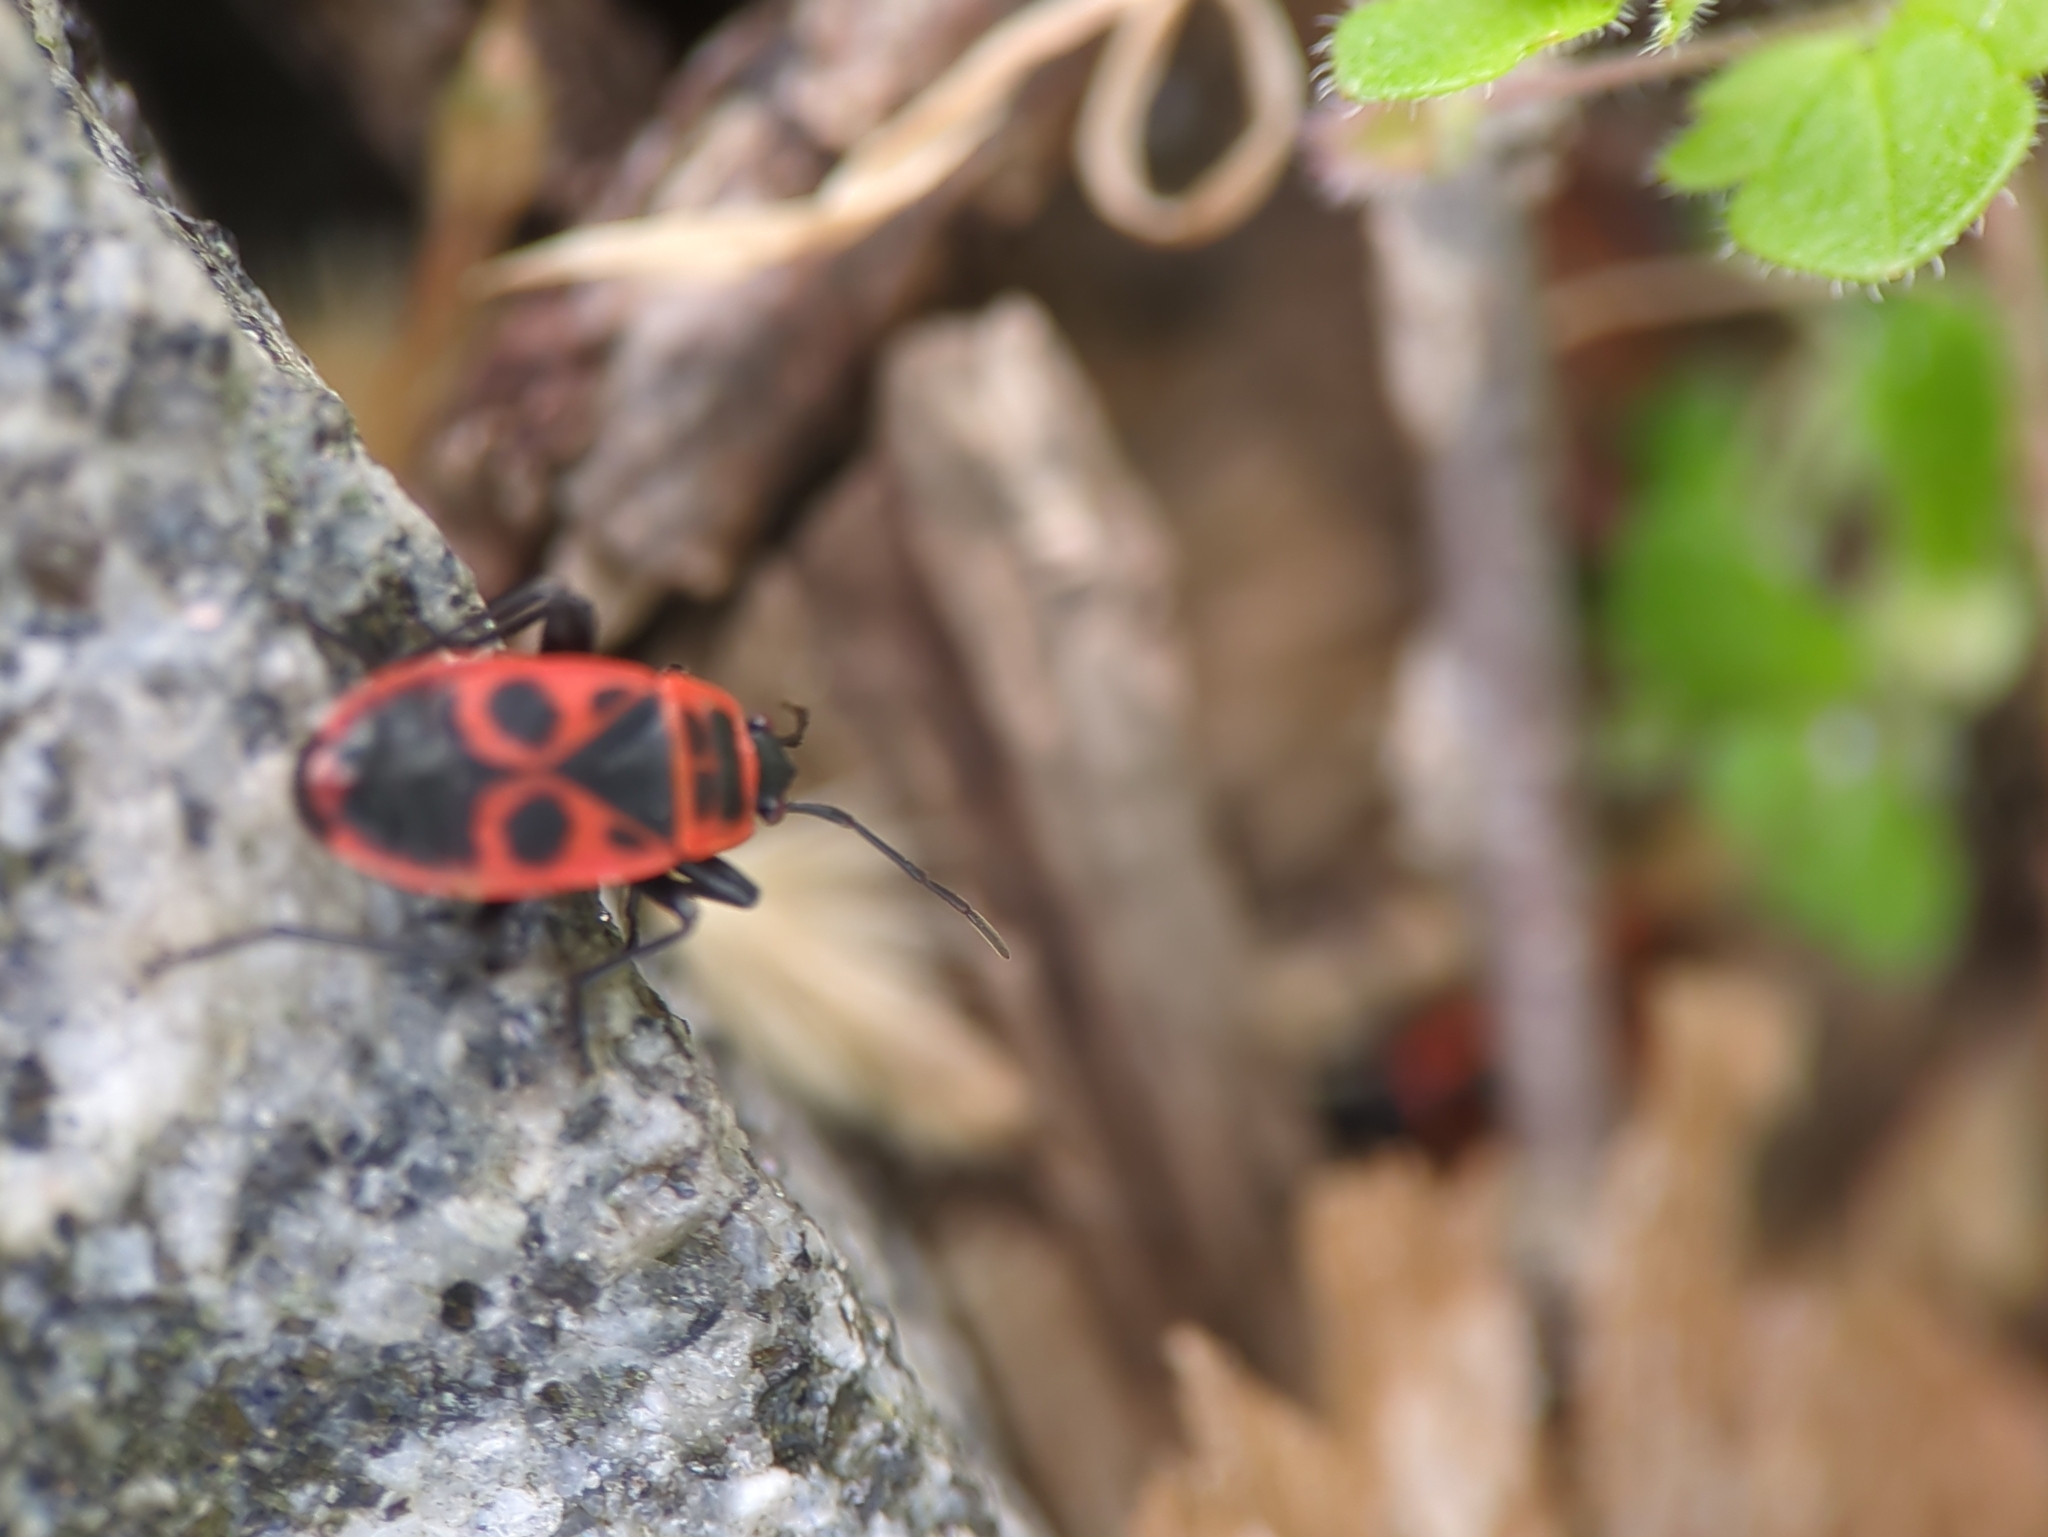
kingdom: Animalia
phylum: Arthropoda
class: Insecta
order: Hemiptera
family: Pyrrhocoridae
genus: Pyrrhocoris
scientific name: Pyrrhocoris apterus
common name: Firebug
